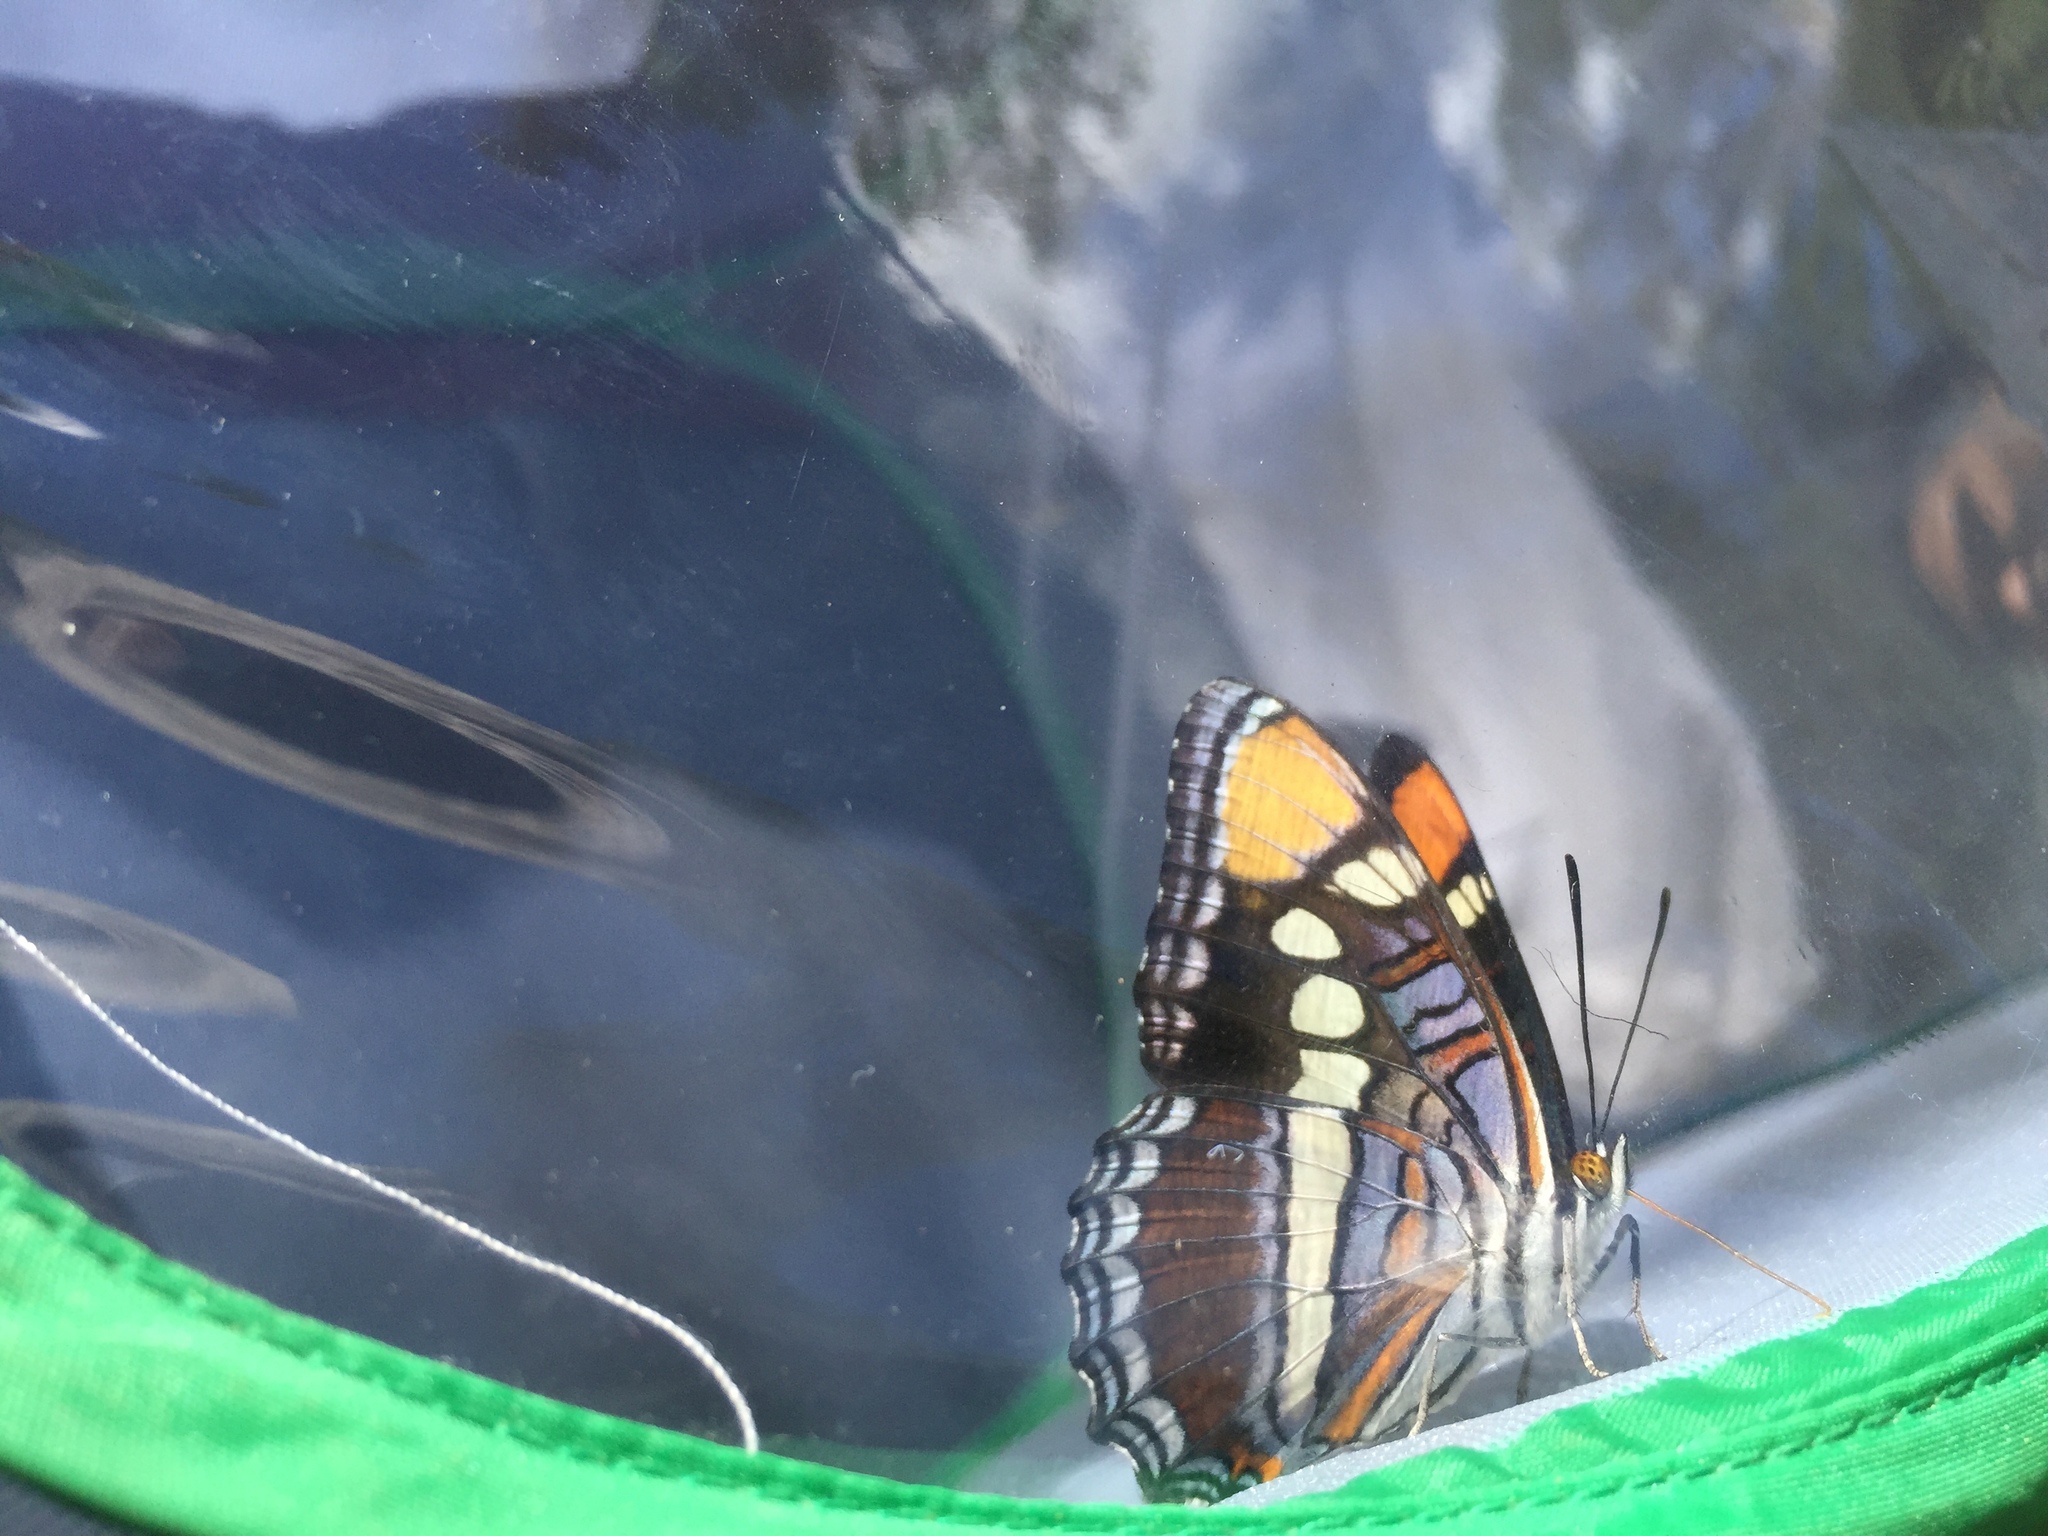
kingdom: Animalia
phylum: Arthropoda
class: Insecta
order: Lepidoptera
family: Nymphalidae
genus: Limenitis
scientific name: Limenitis bredowii
